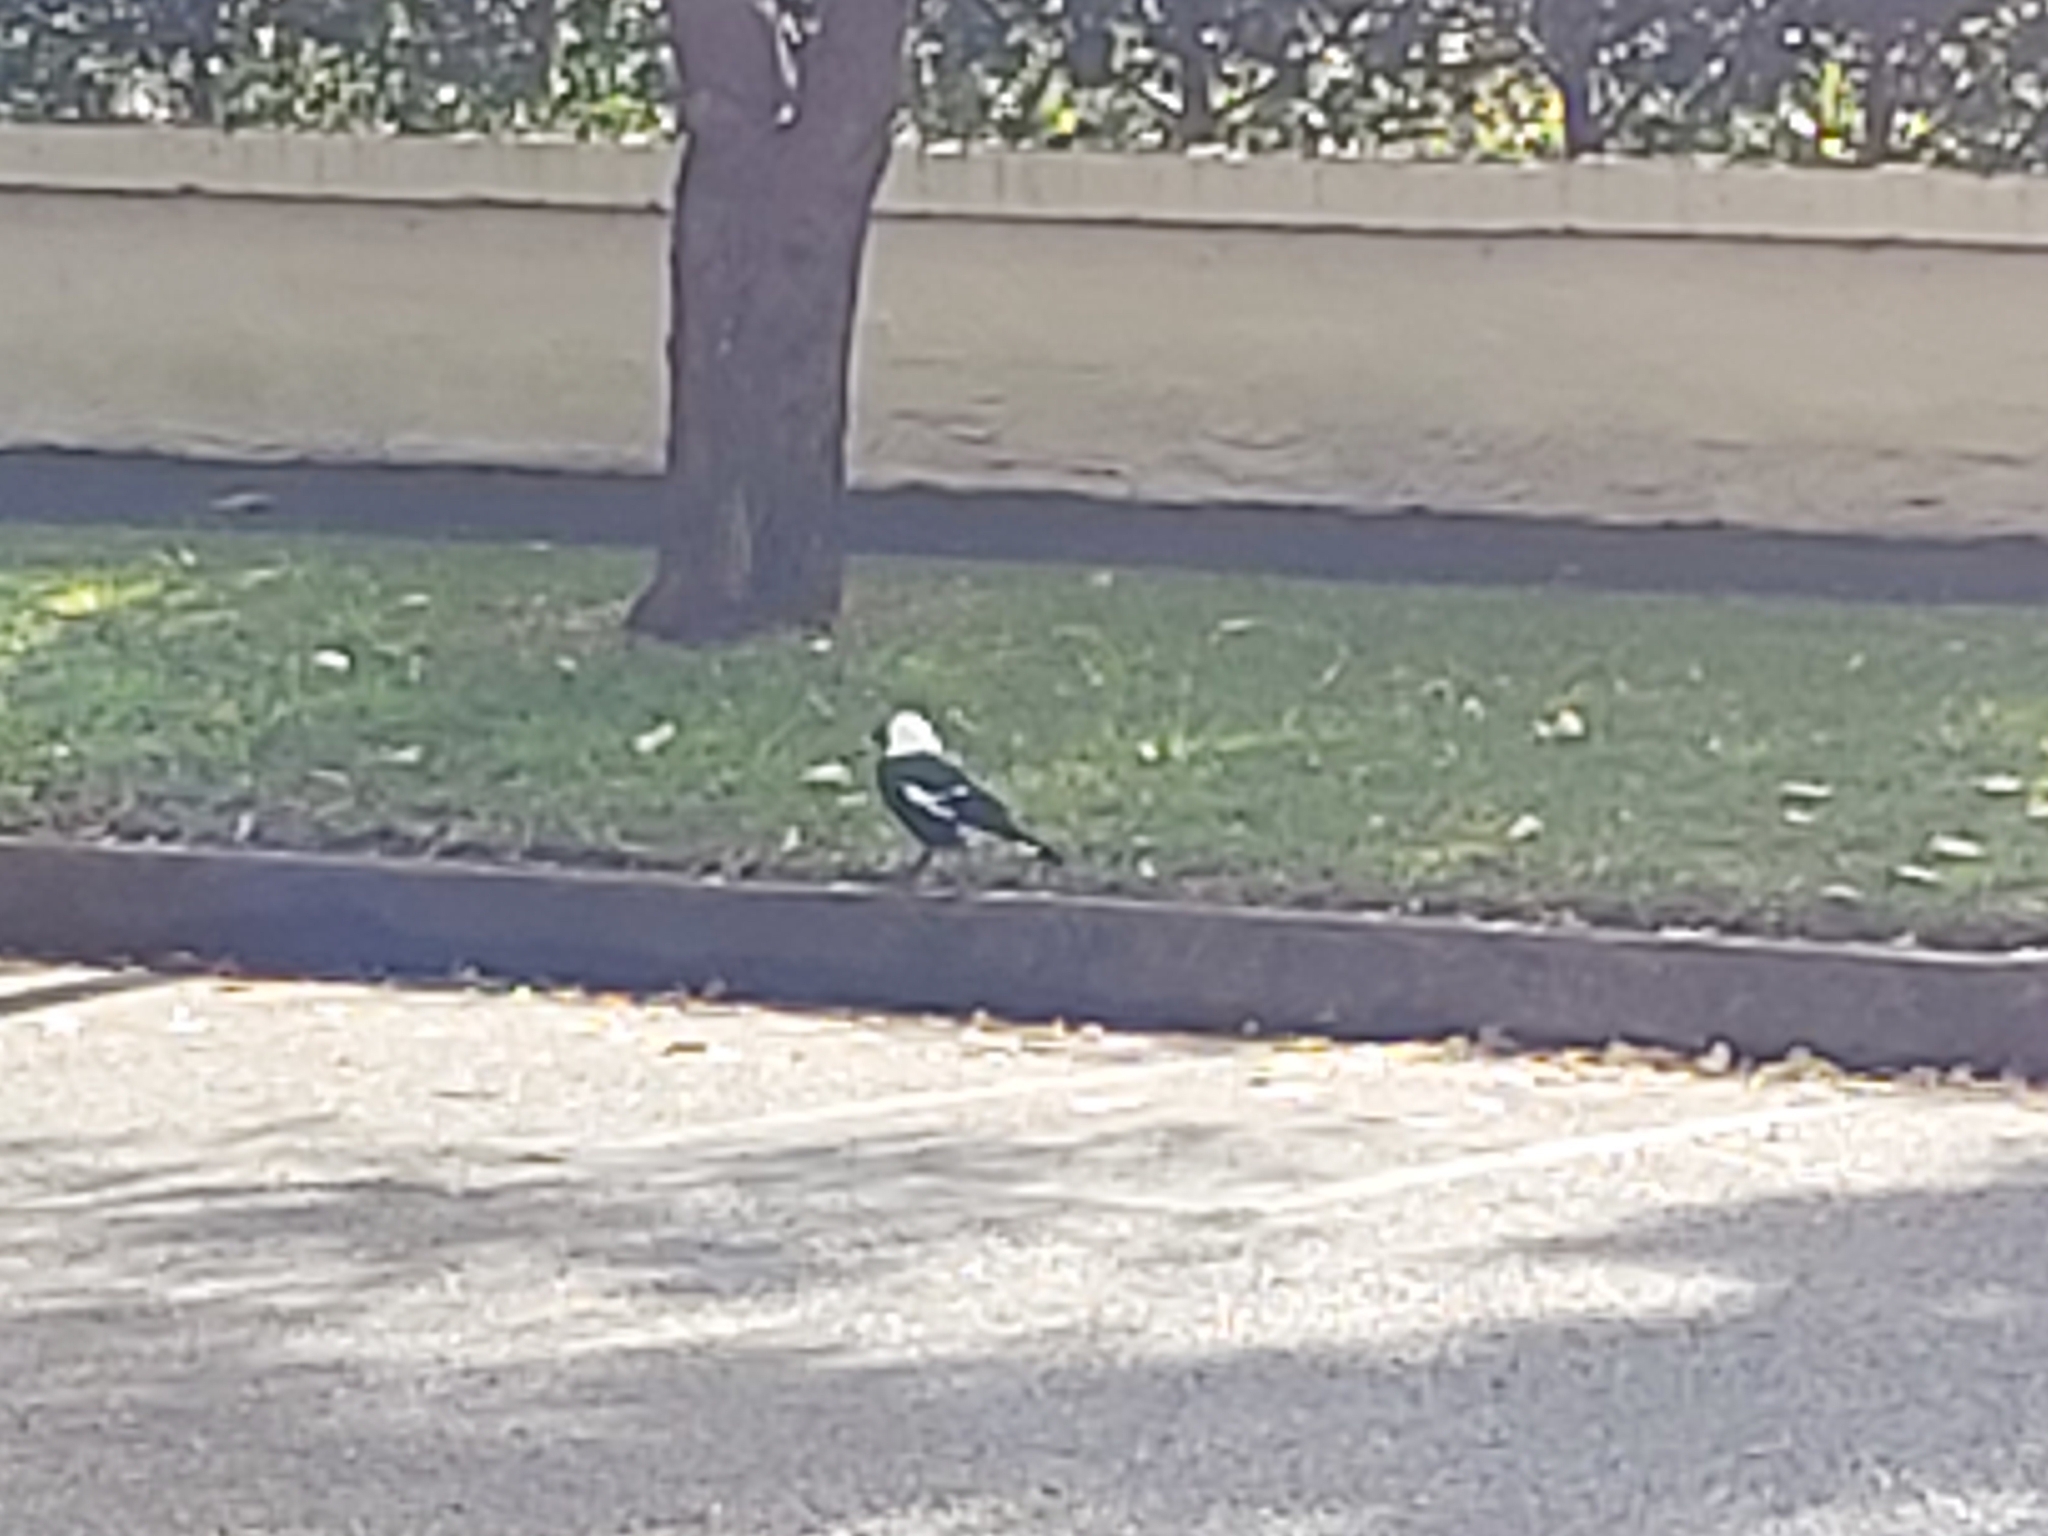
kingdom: Animalia
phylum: Chordata
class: Aves
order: Passeriformes
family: Cracticidae
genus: Gymnorhina
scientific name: Gymnorhina tibicen
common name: Australian magpie
